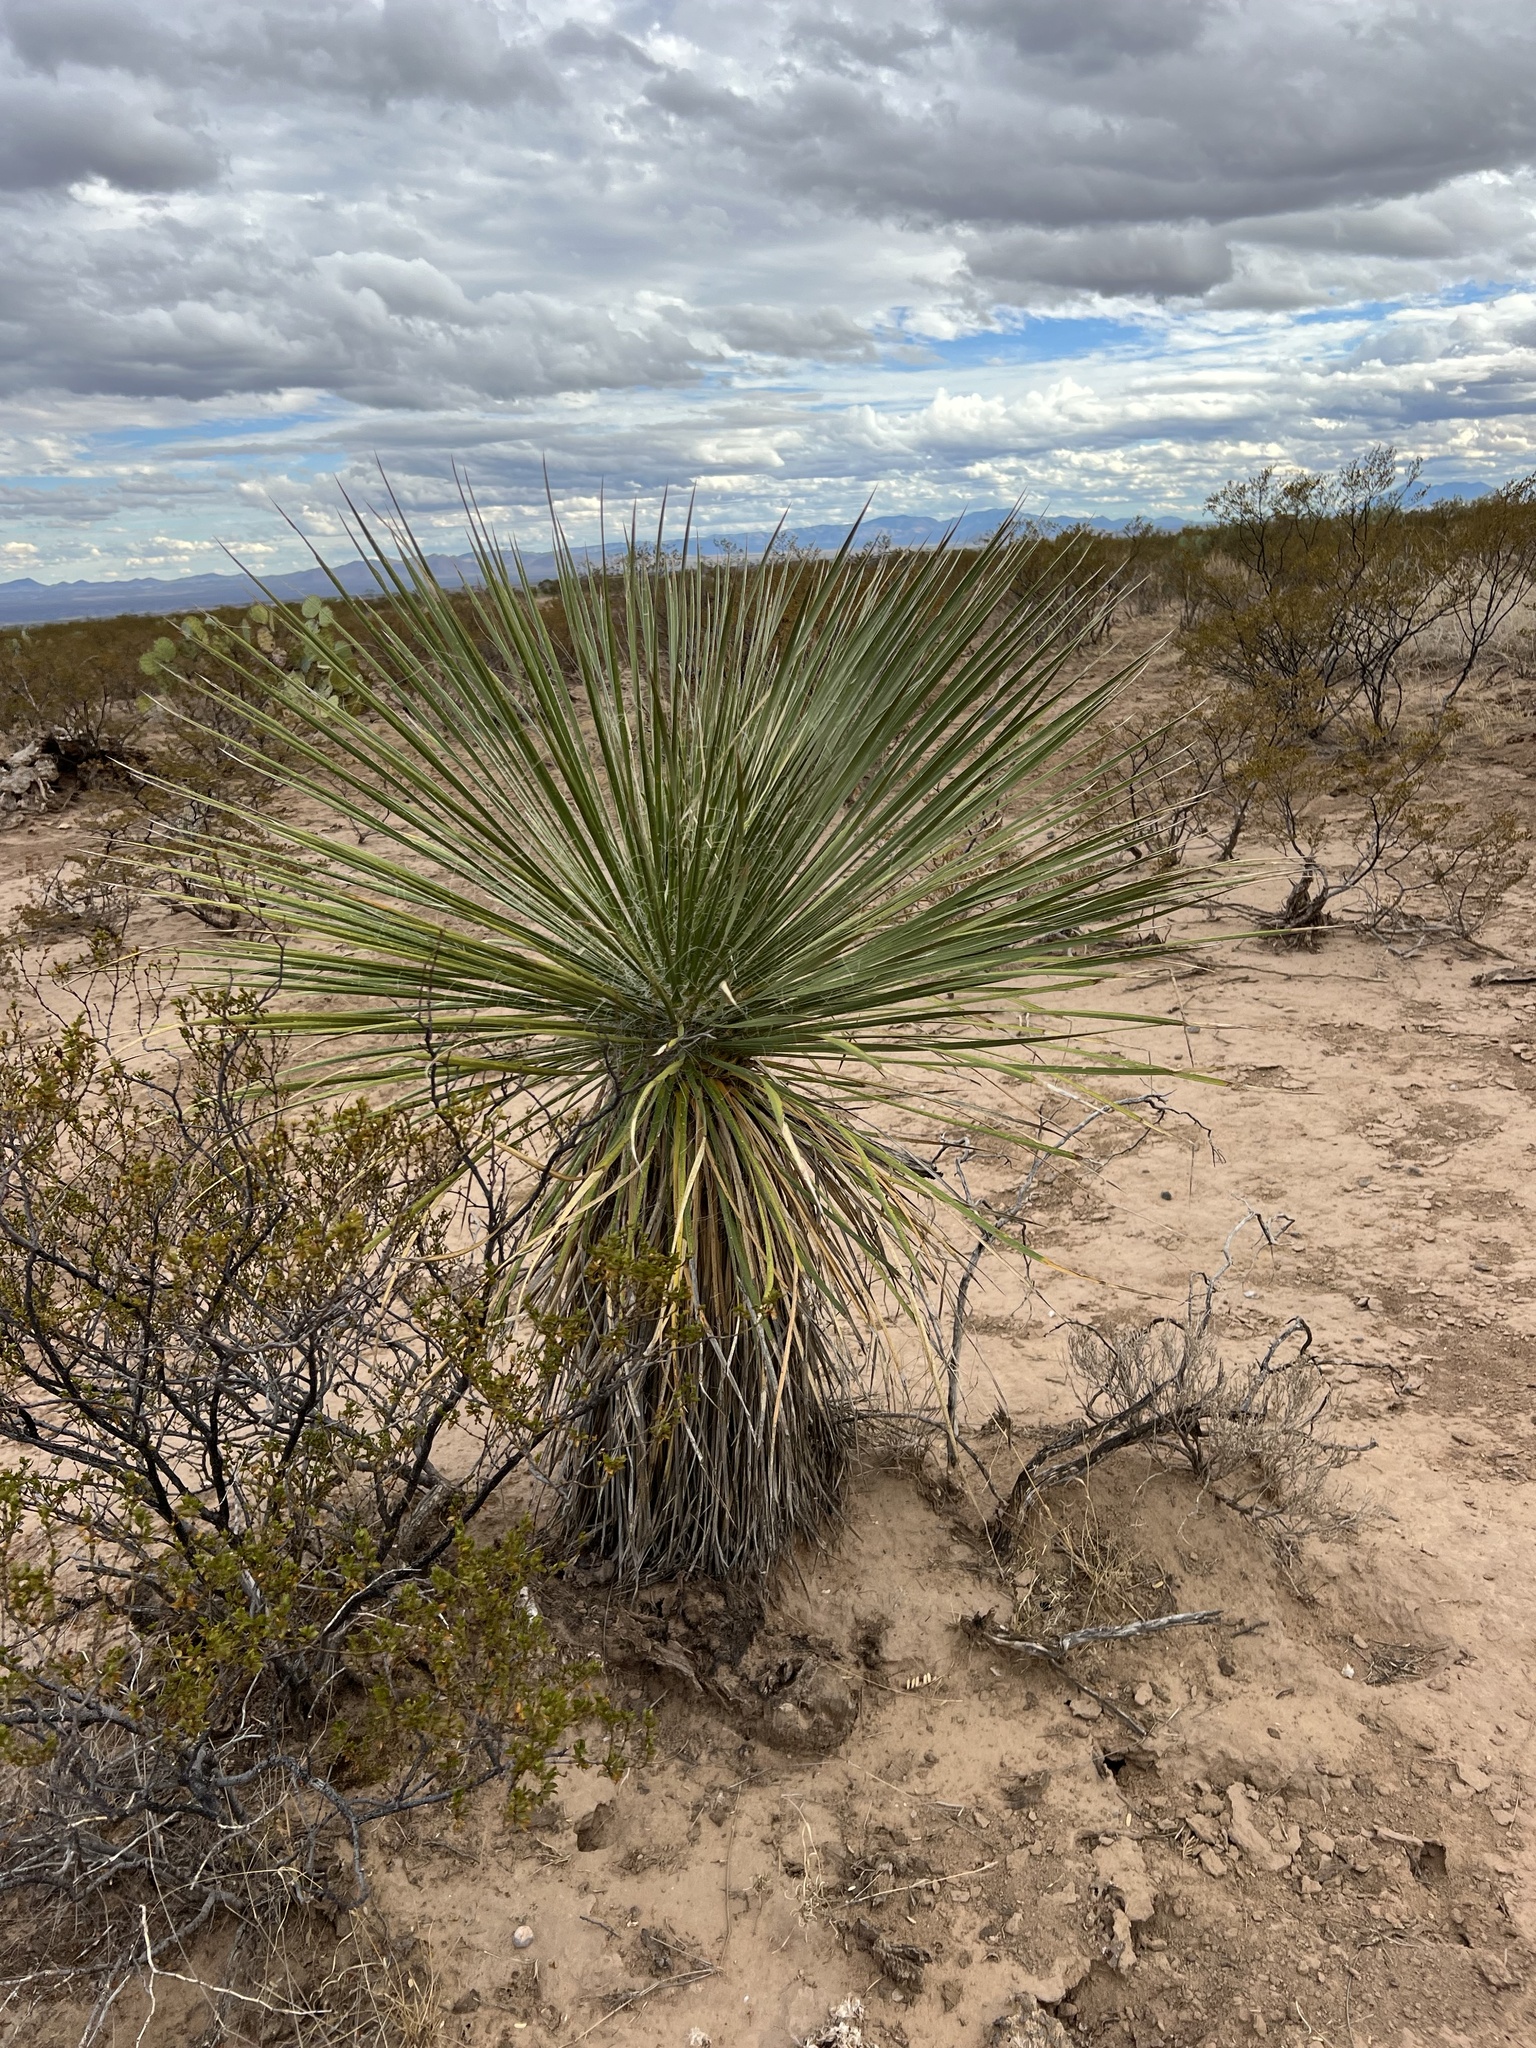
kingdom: Plantae
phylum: Tracheophyta
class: Liliopsida
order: Asparagales
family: Asparagaceae
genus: Yucca
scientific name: Yucca elata
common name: Palmella
